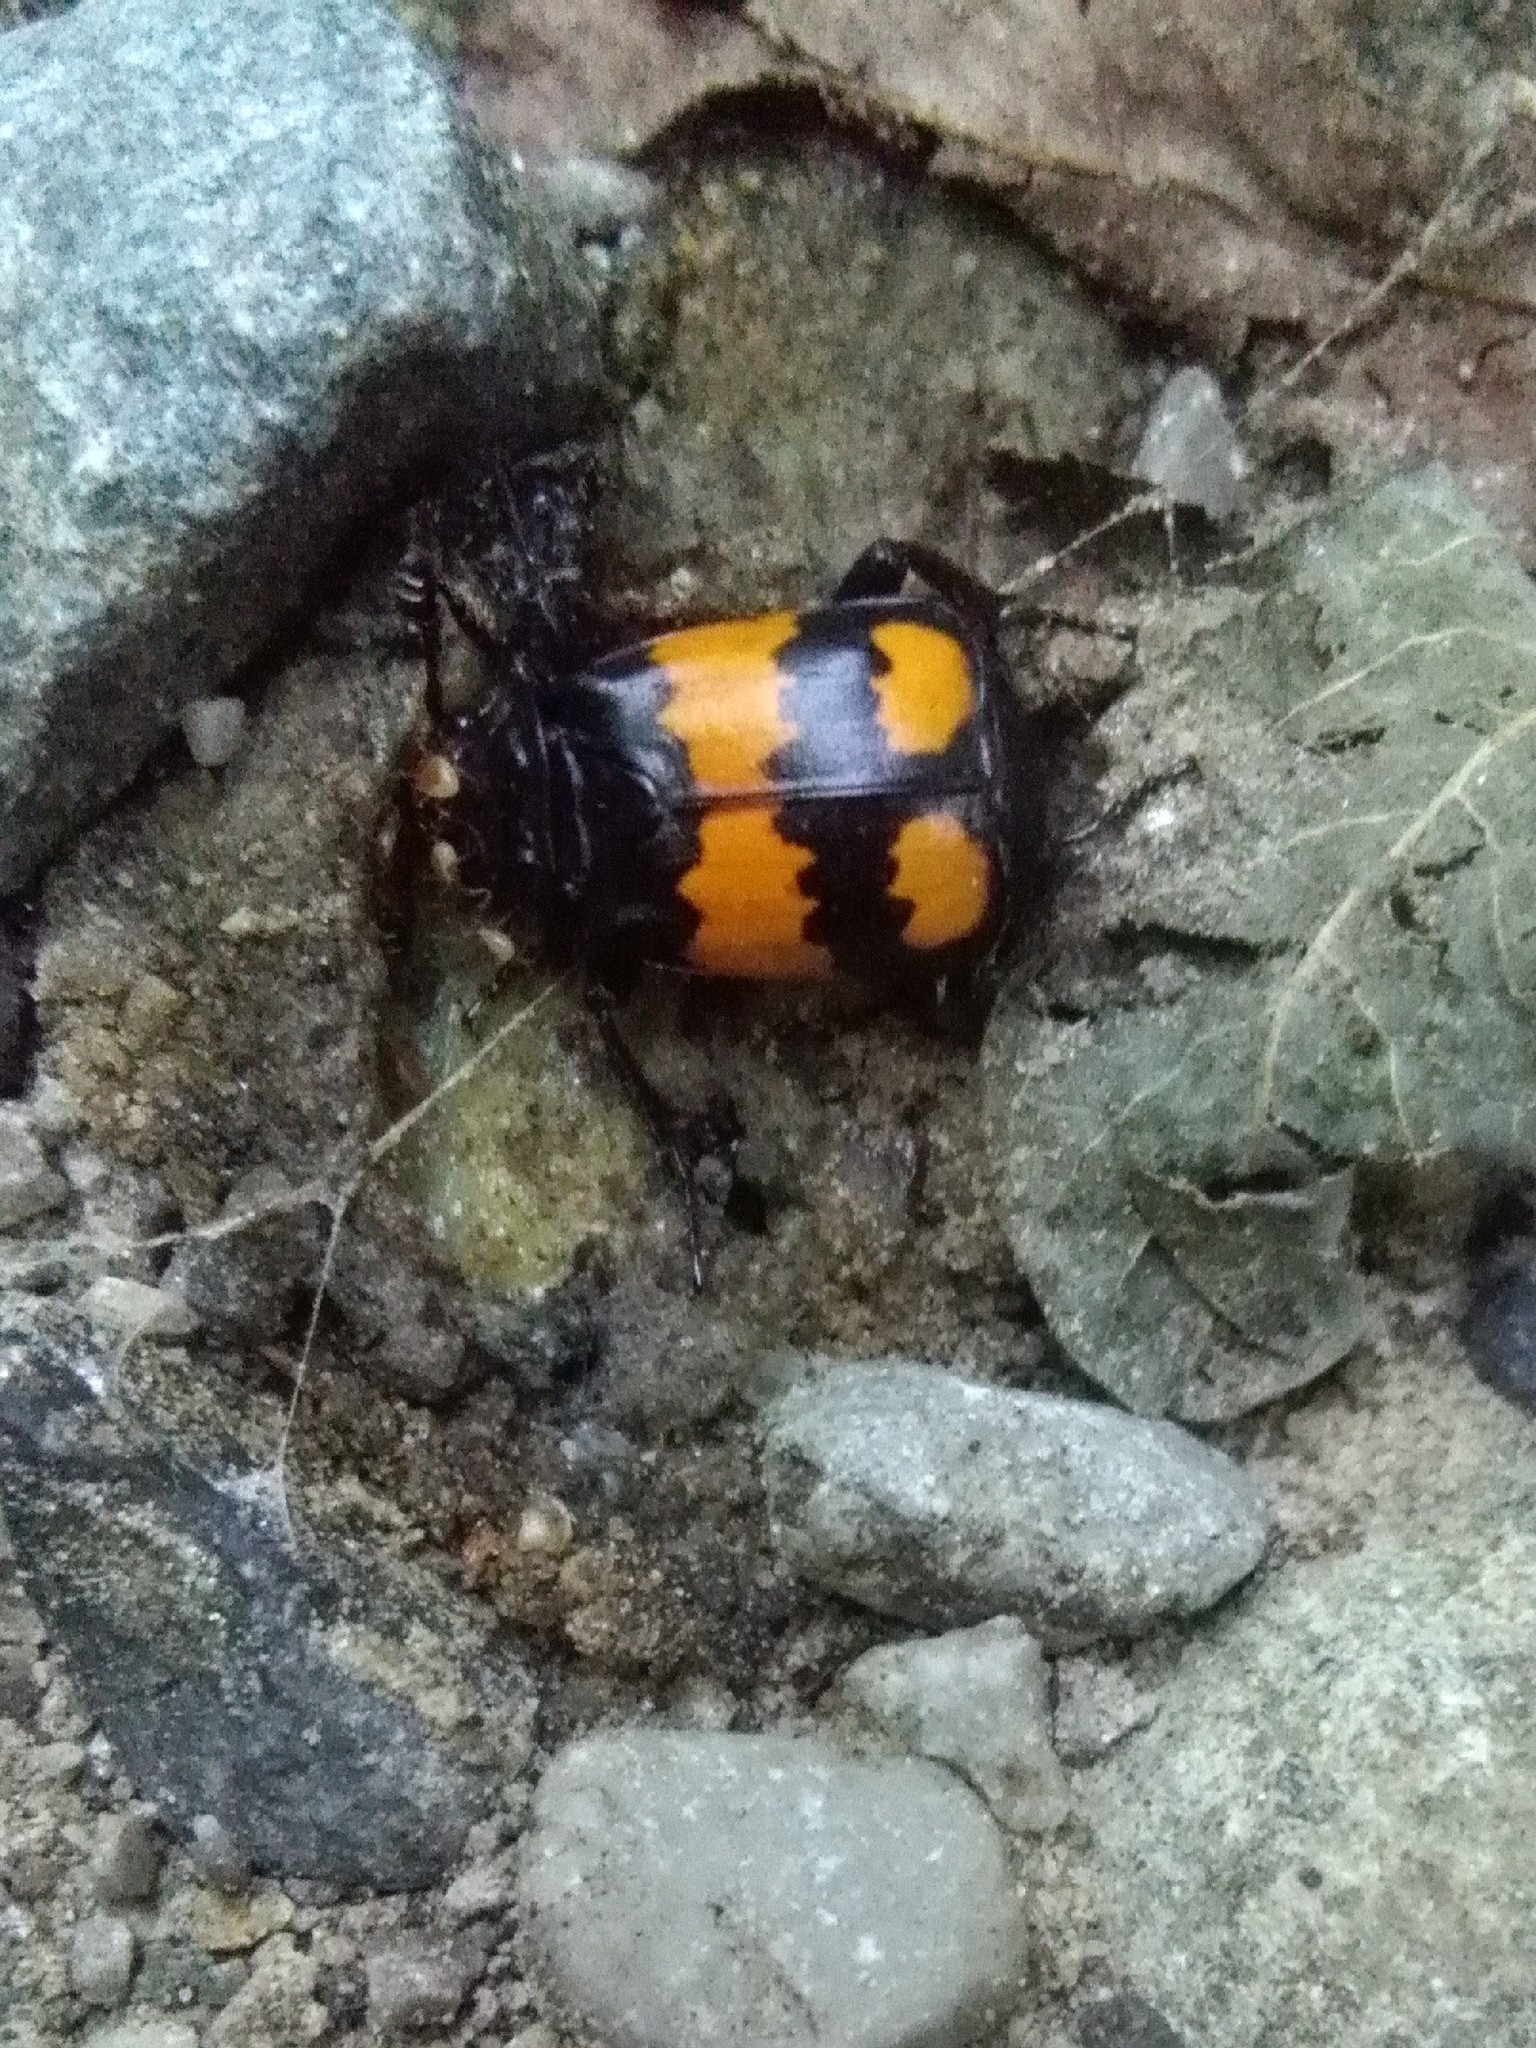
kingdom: Animalia
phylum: Arthropoda
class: Insecta
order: Coleoptera
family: Staphylinidae
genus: Nicrophorus
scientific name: Nicrophorus vespilloides
